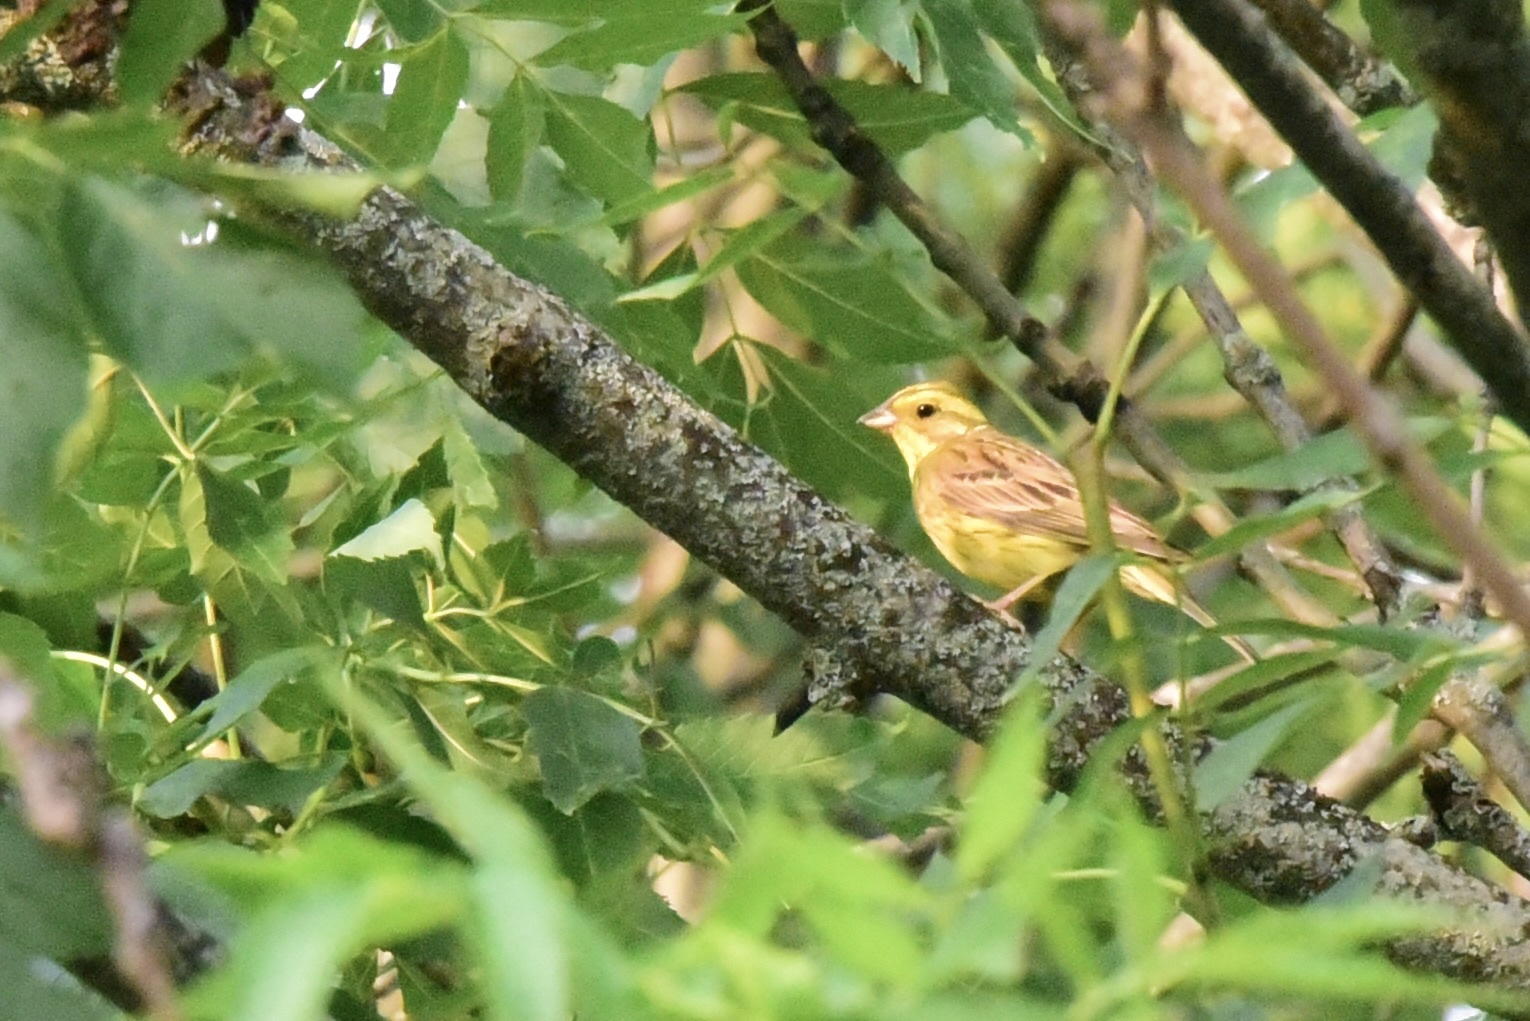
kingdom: Animalia
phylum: Chordata
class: Aves
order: Passeriformes
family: Emberizidae
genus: Emberiza
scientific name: Emberiza citrinella
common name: Yellowhammer
